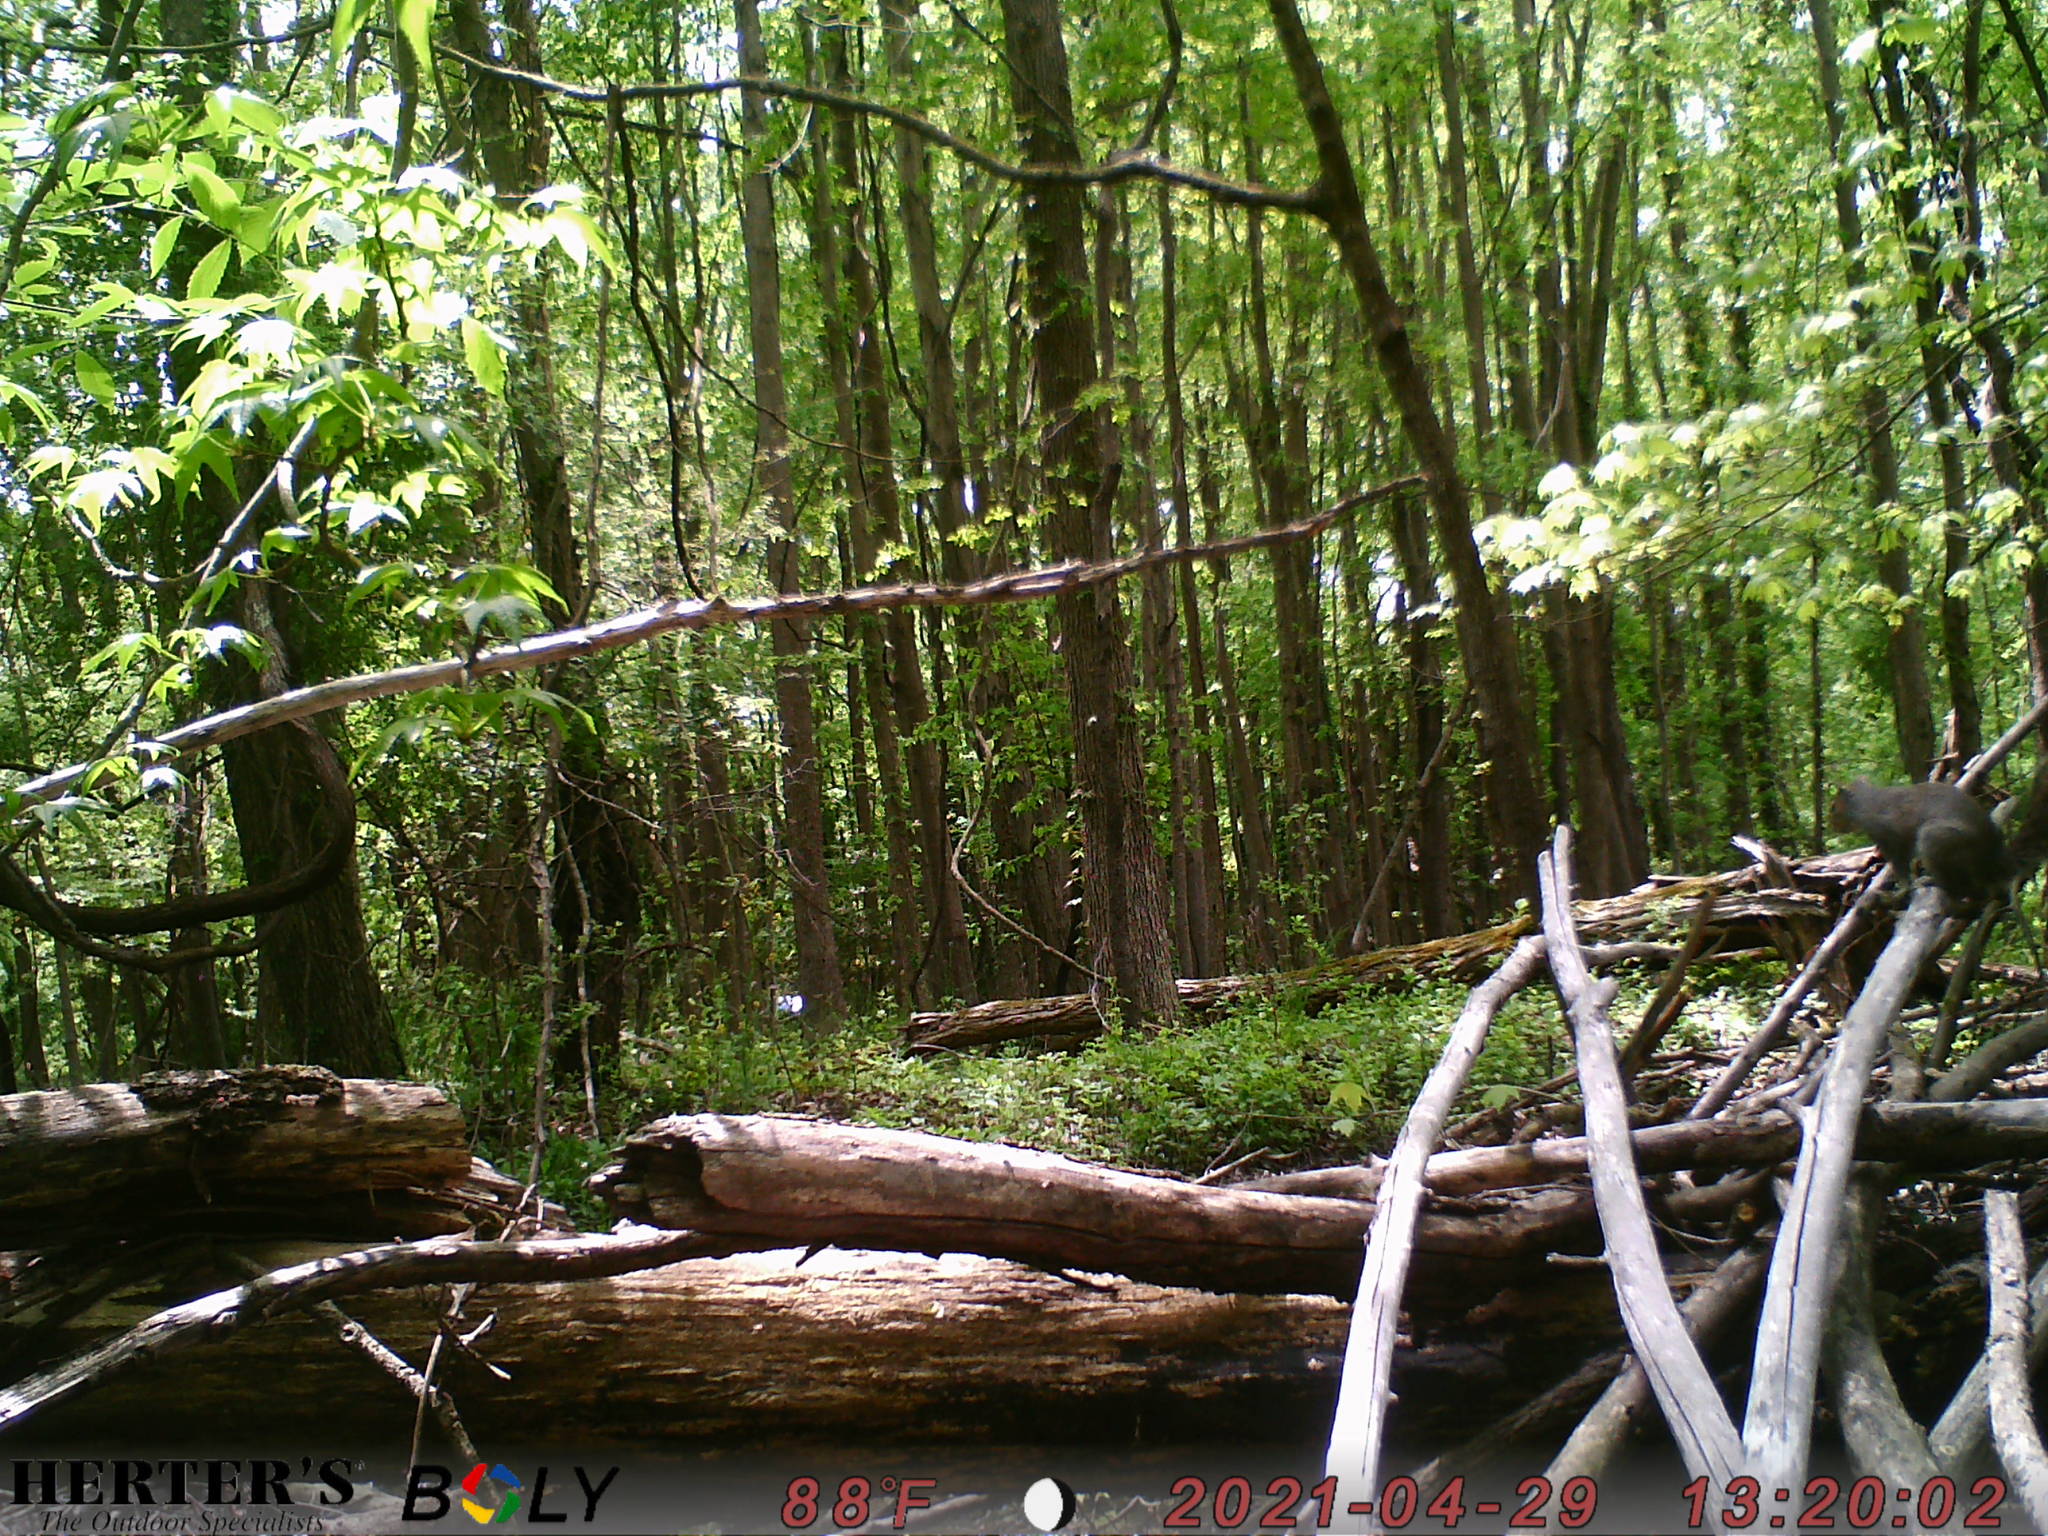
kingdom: Animalia
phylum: Chordata
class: Mammalia
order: Rodentia
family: Sciuridae
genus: Sciurus
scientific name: Sciurus carolinensis
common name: Eastern gray squirrel
